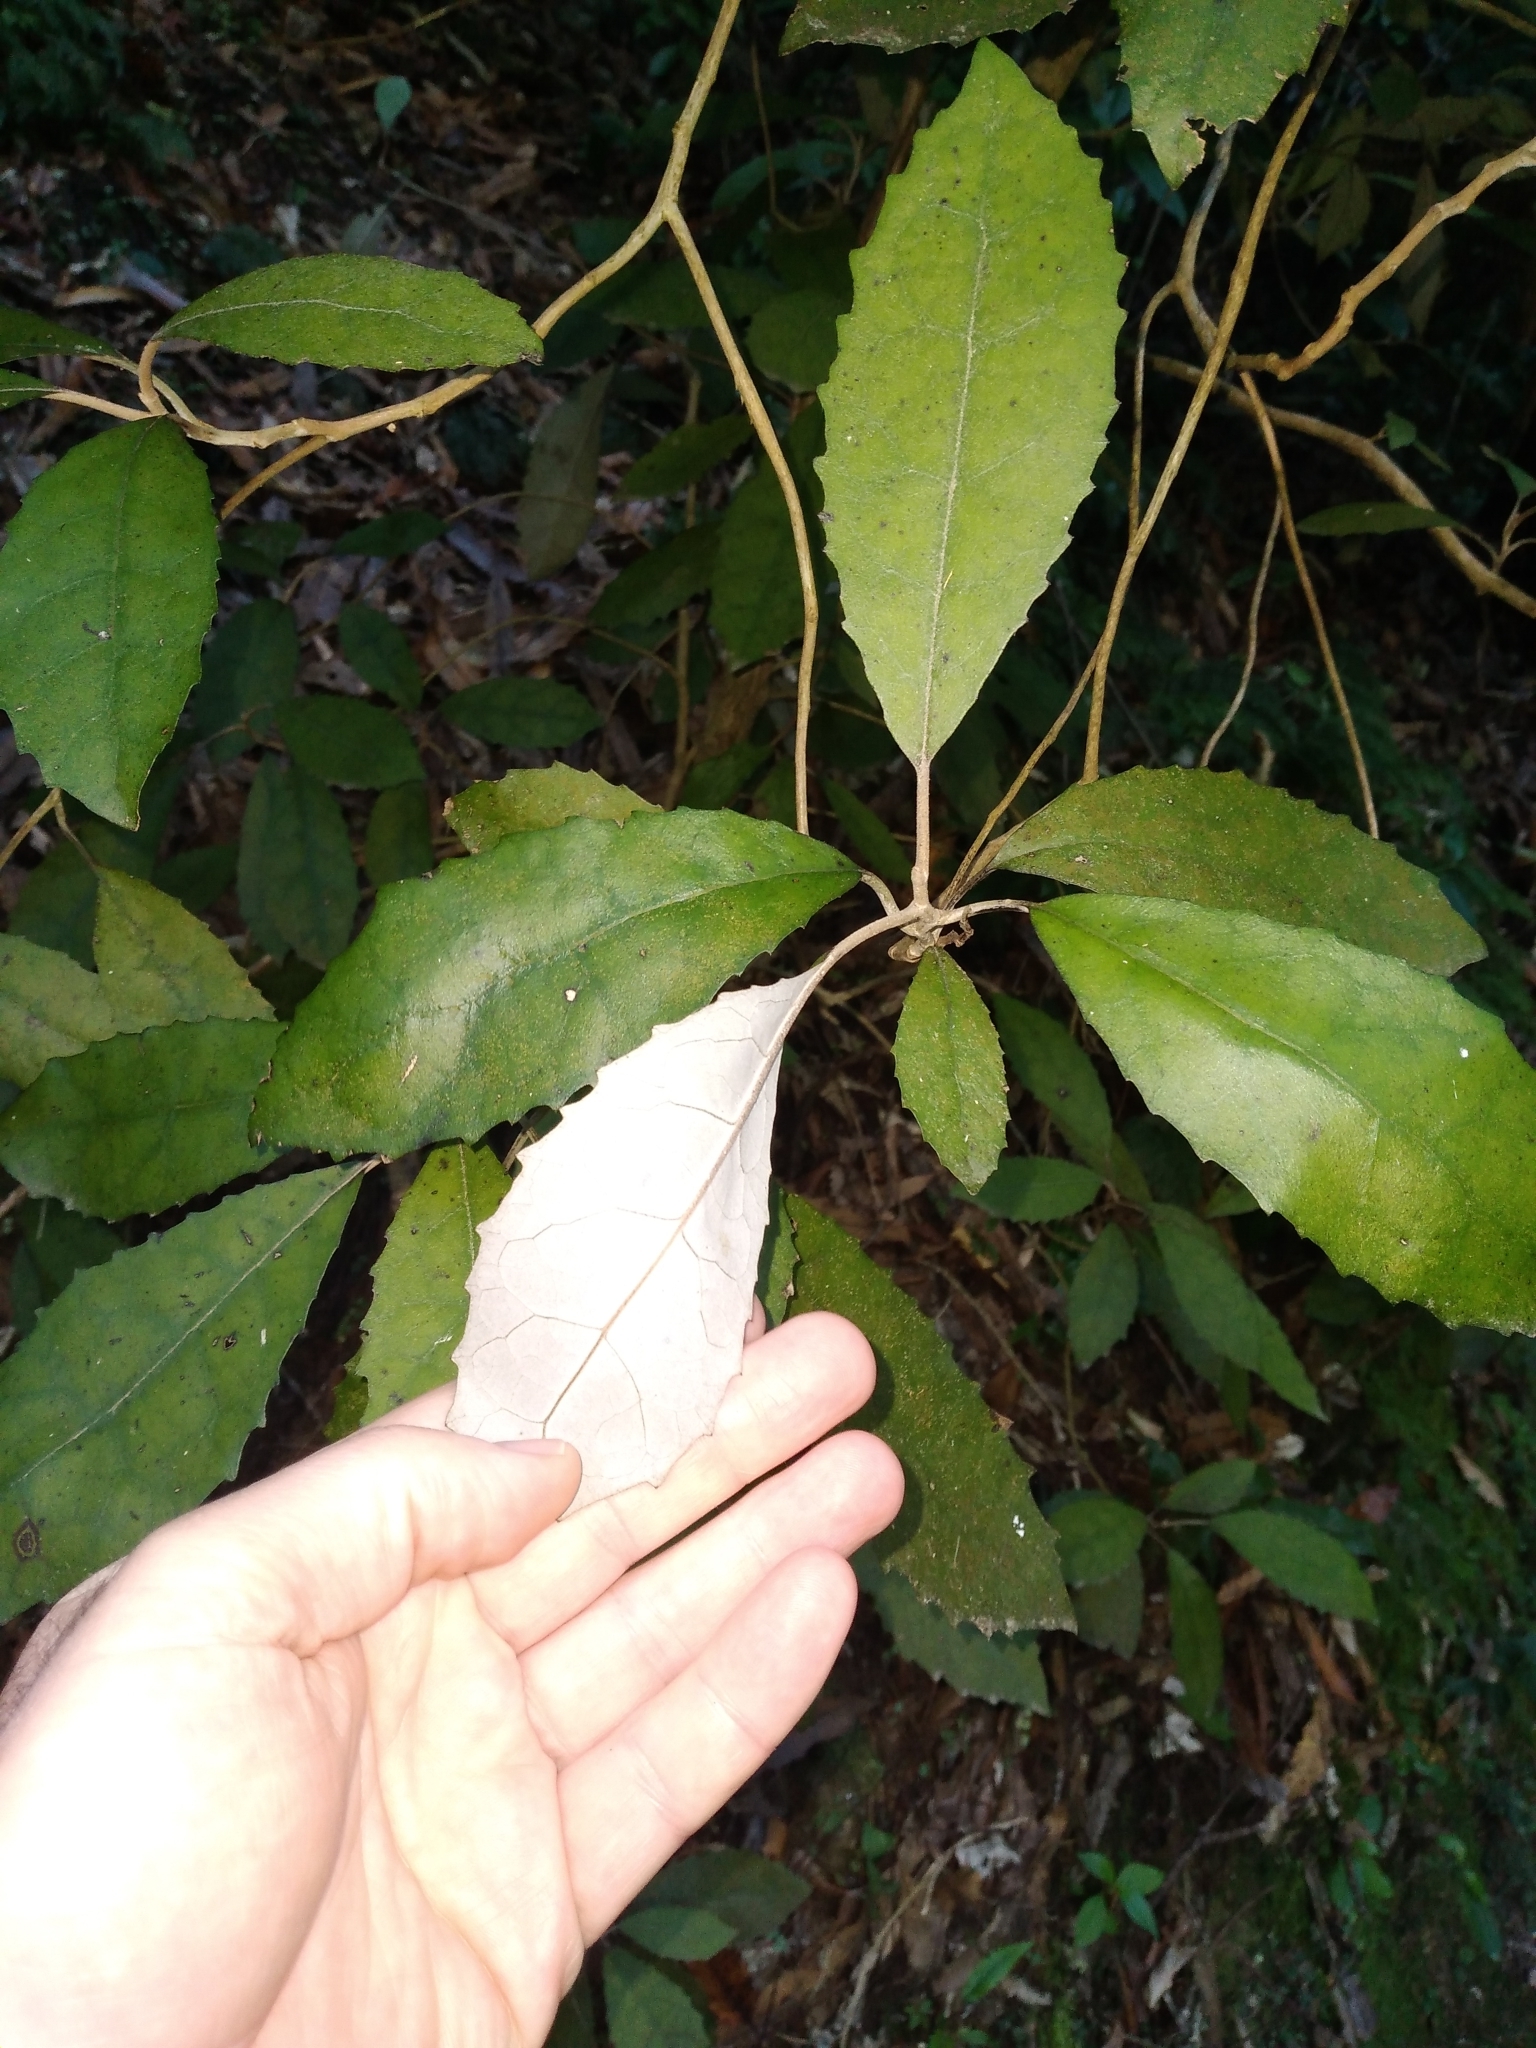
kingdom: Plantae
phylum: Tracheophyta
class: Magnoliopsida
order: Asterales
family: Asteraceae
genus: Olearia
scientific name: Olearia rani
